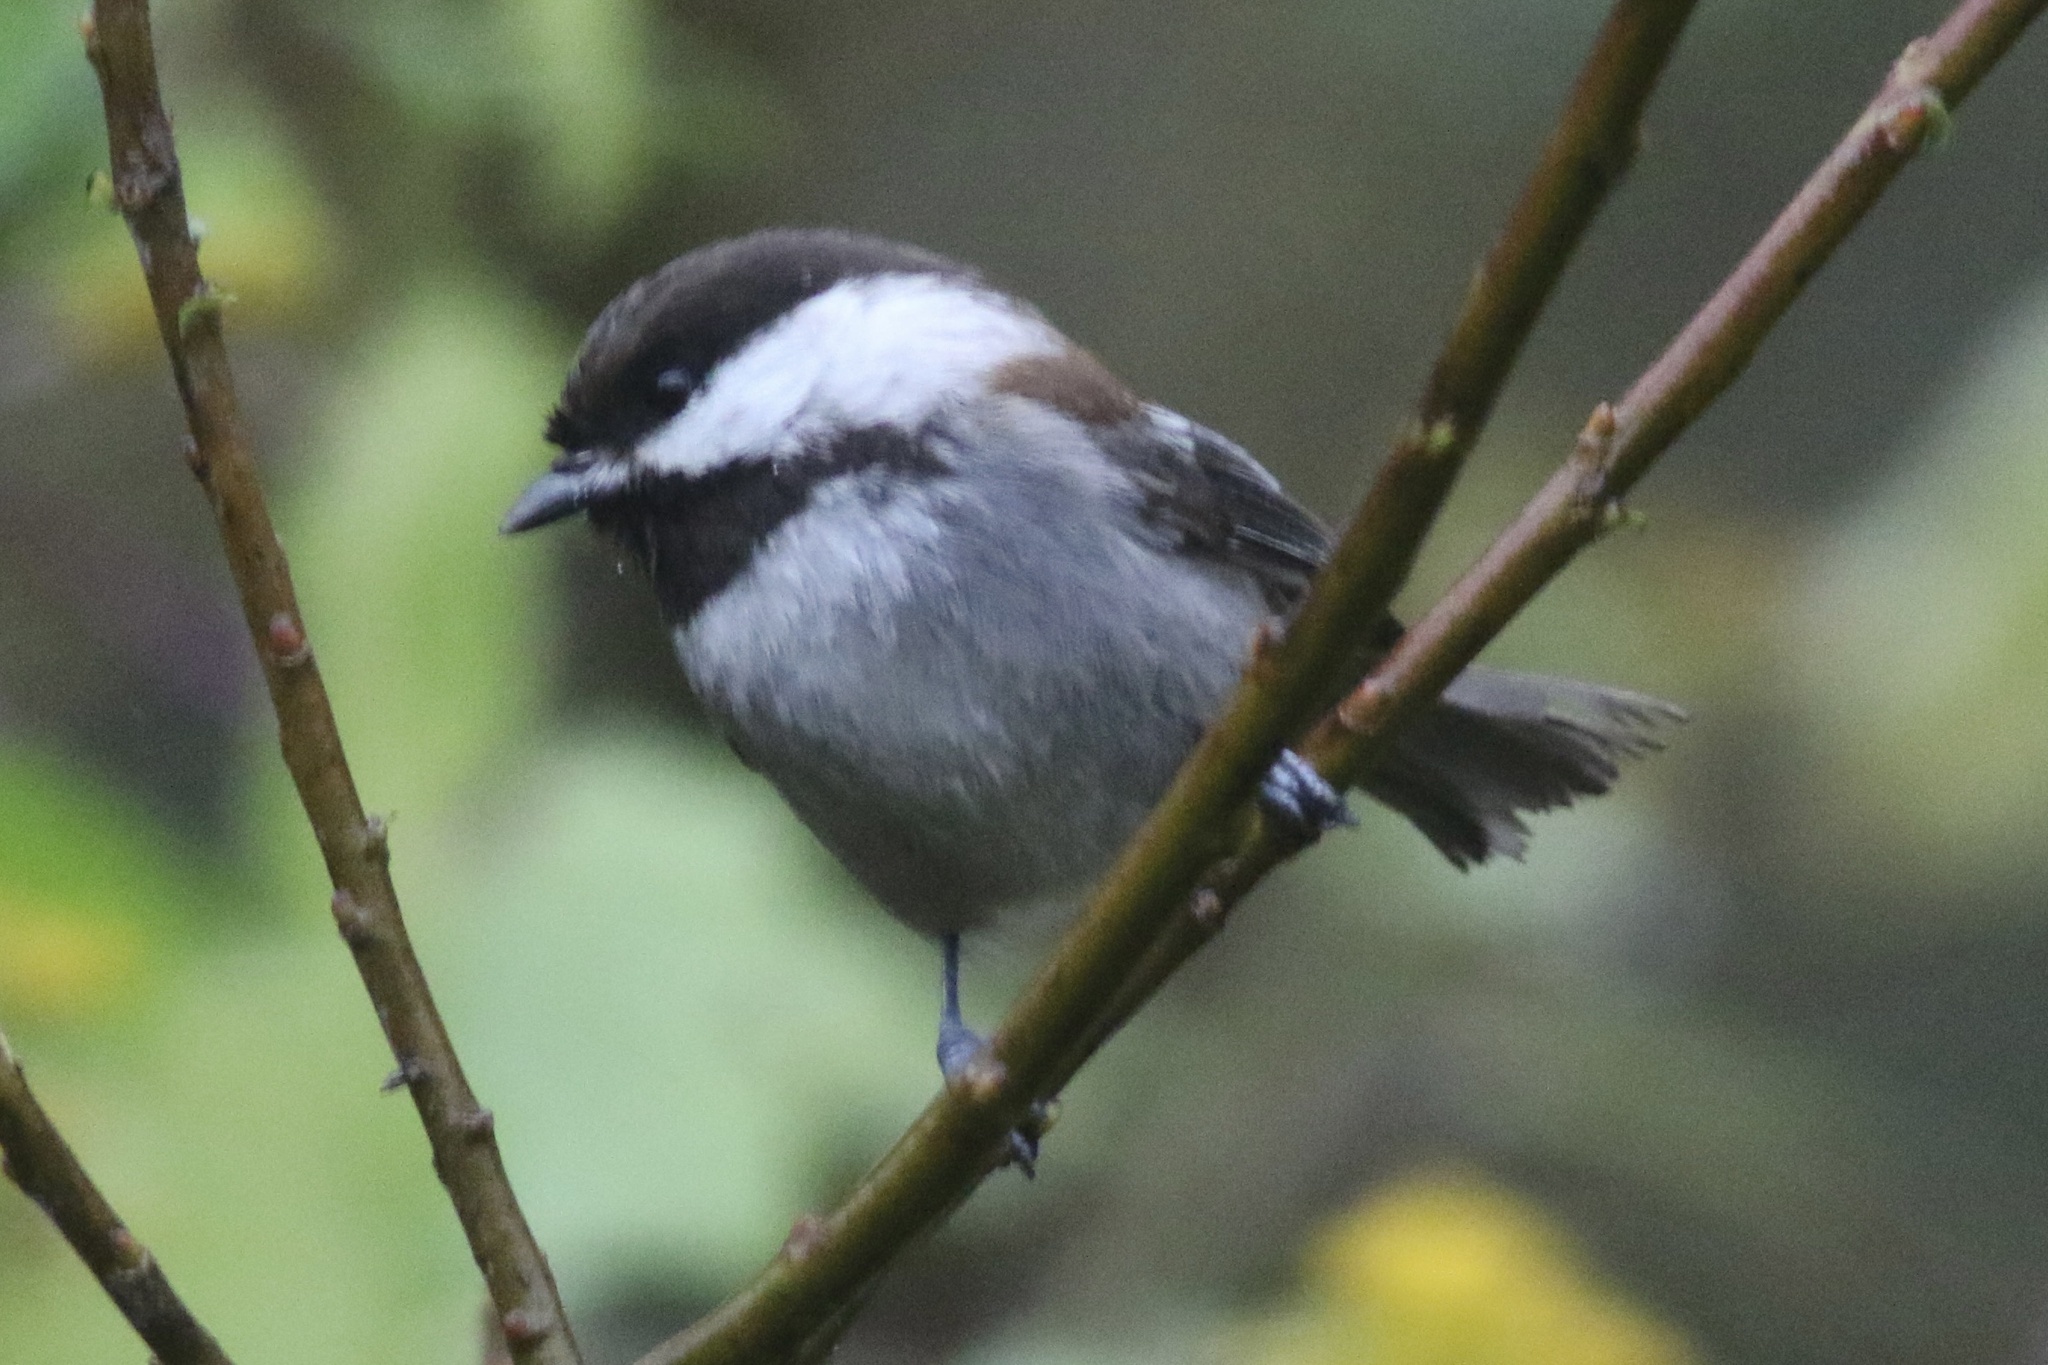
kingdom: Animalia
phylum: Chordata
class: Aves
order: Passeriformes
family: Paridae
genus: Poecile
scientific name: Poecile rufescens
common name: Chestnut-backed chickadee
